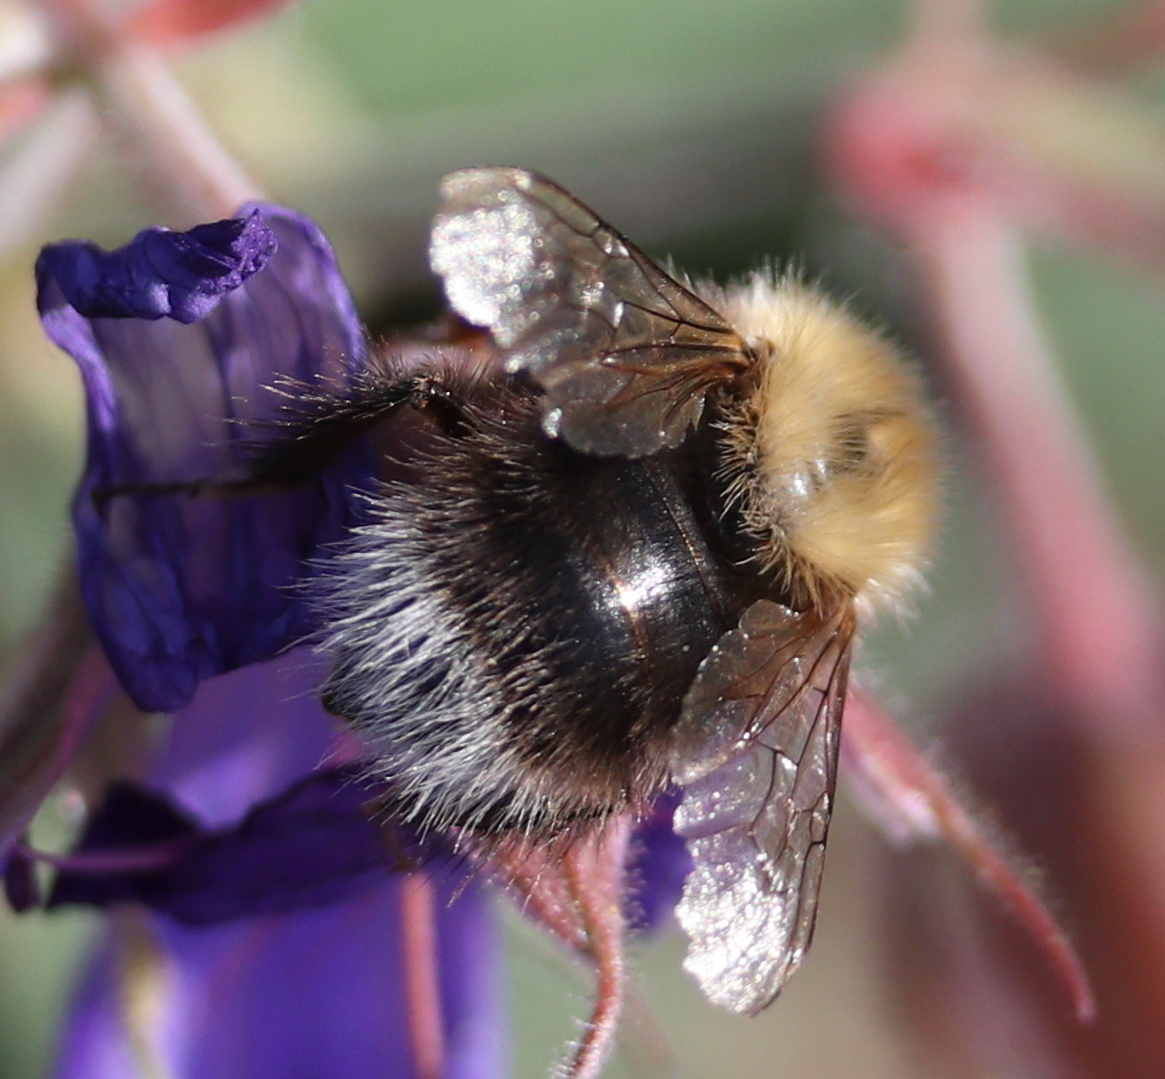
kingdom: Animalia
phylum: Arthropoda
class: Insecta
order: Hymenoptera
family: Apidae
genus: Bombus
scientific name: Bombus hypnorum
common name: New garden bumblebee
